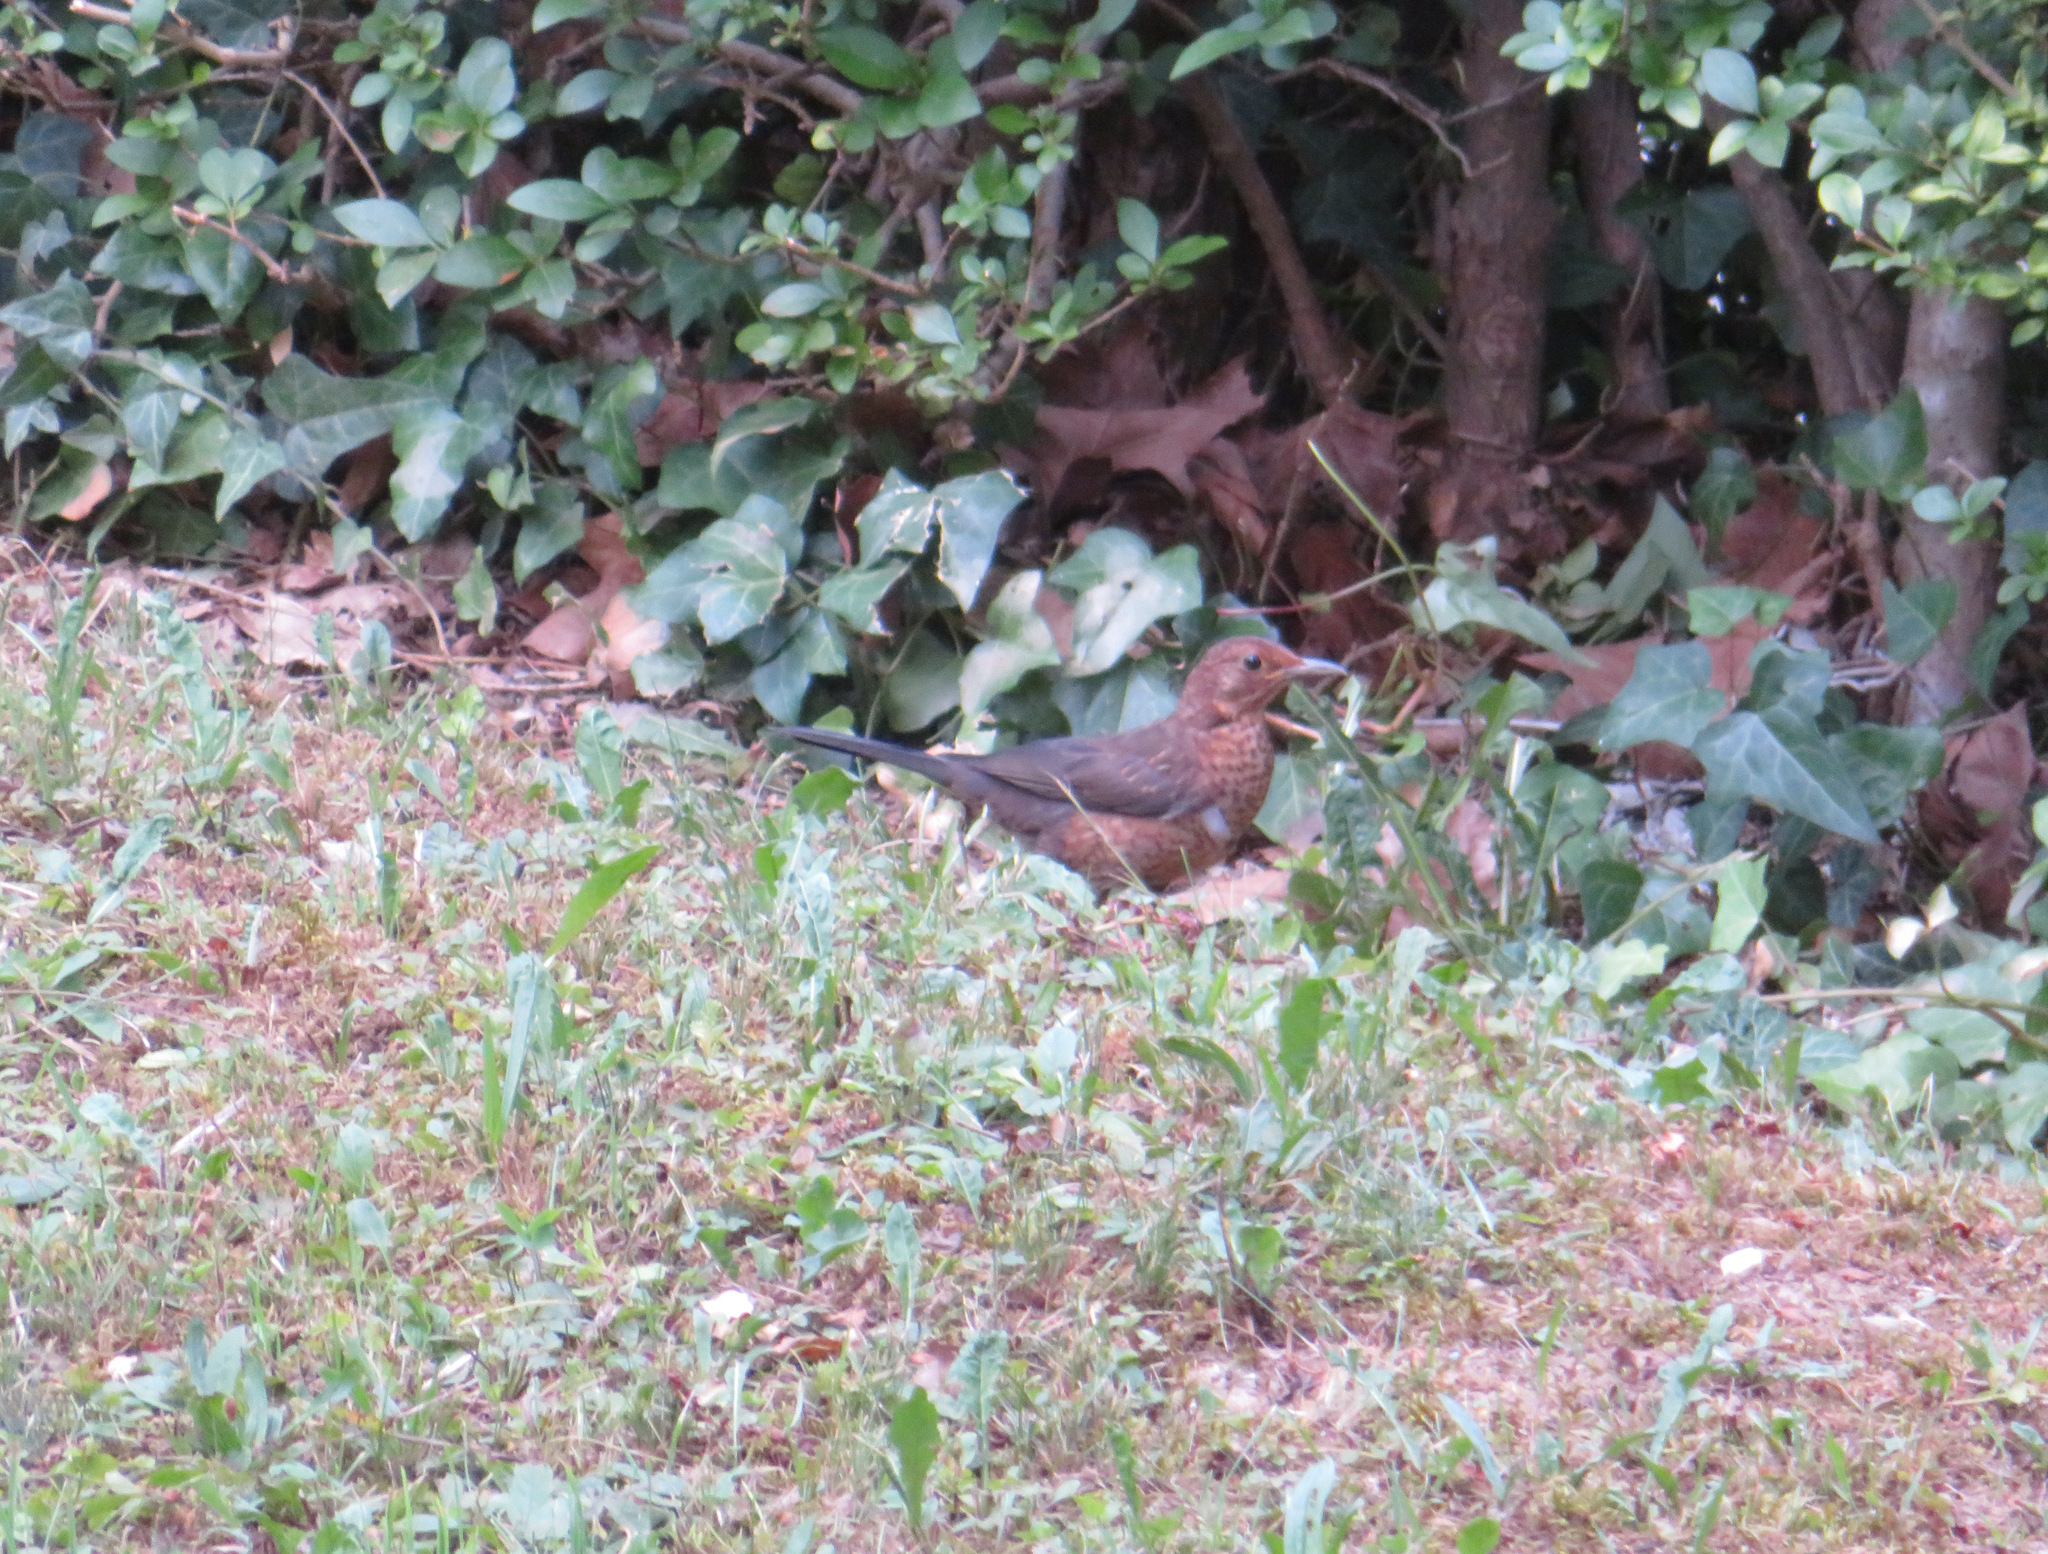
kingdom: Animalia
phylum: Chordata
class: Aves
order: Passeriformes
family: Turdidae
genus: Turdus
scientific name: Turdus merula
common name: Common blackbird
